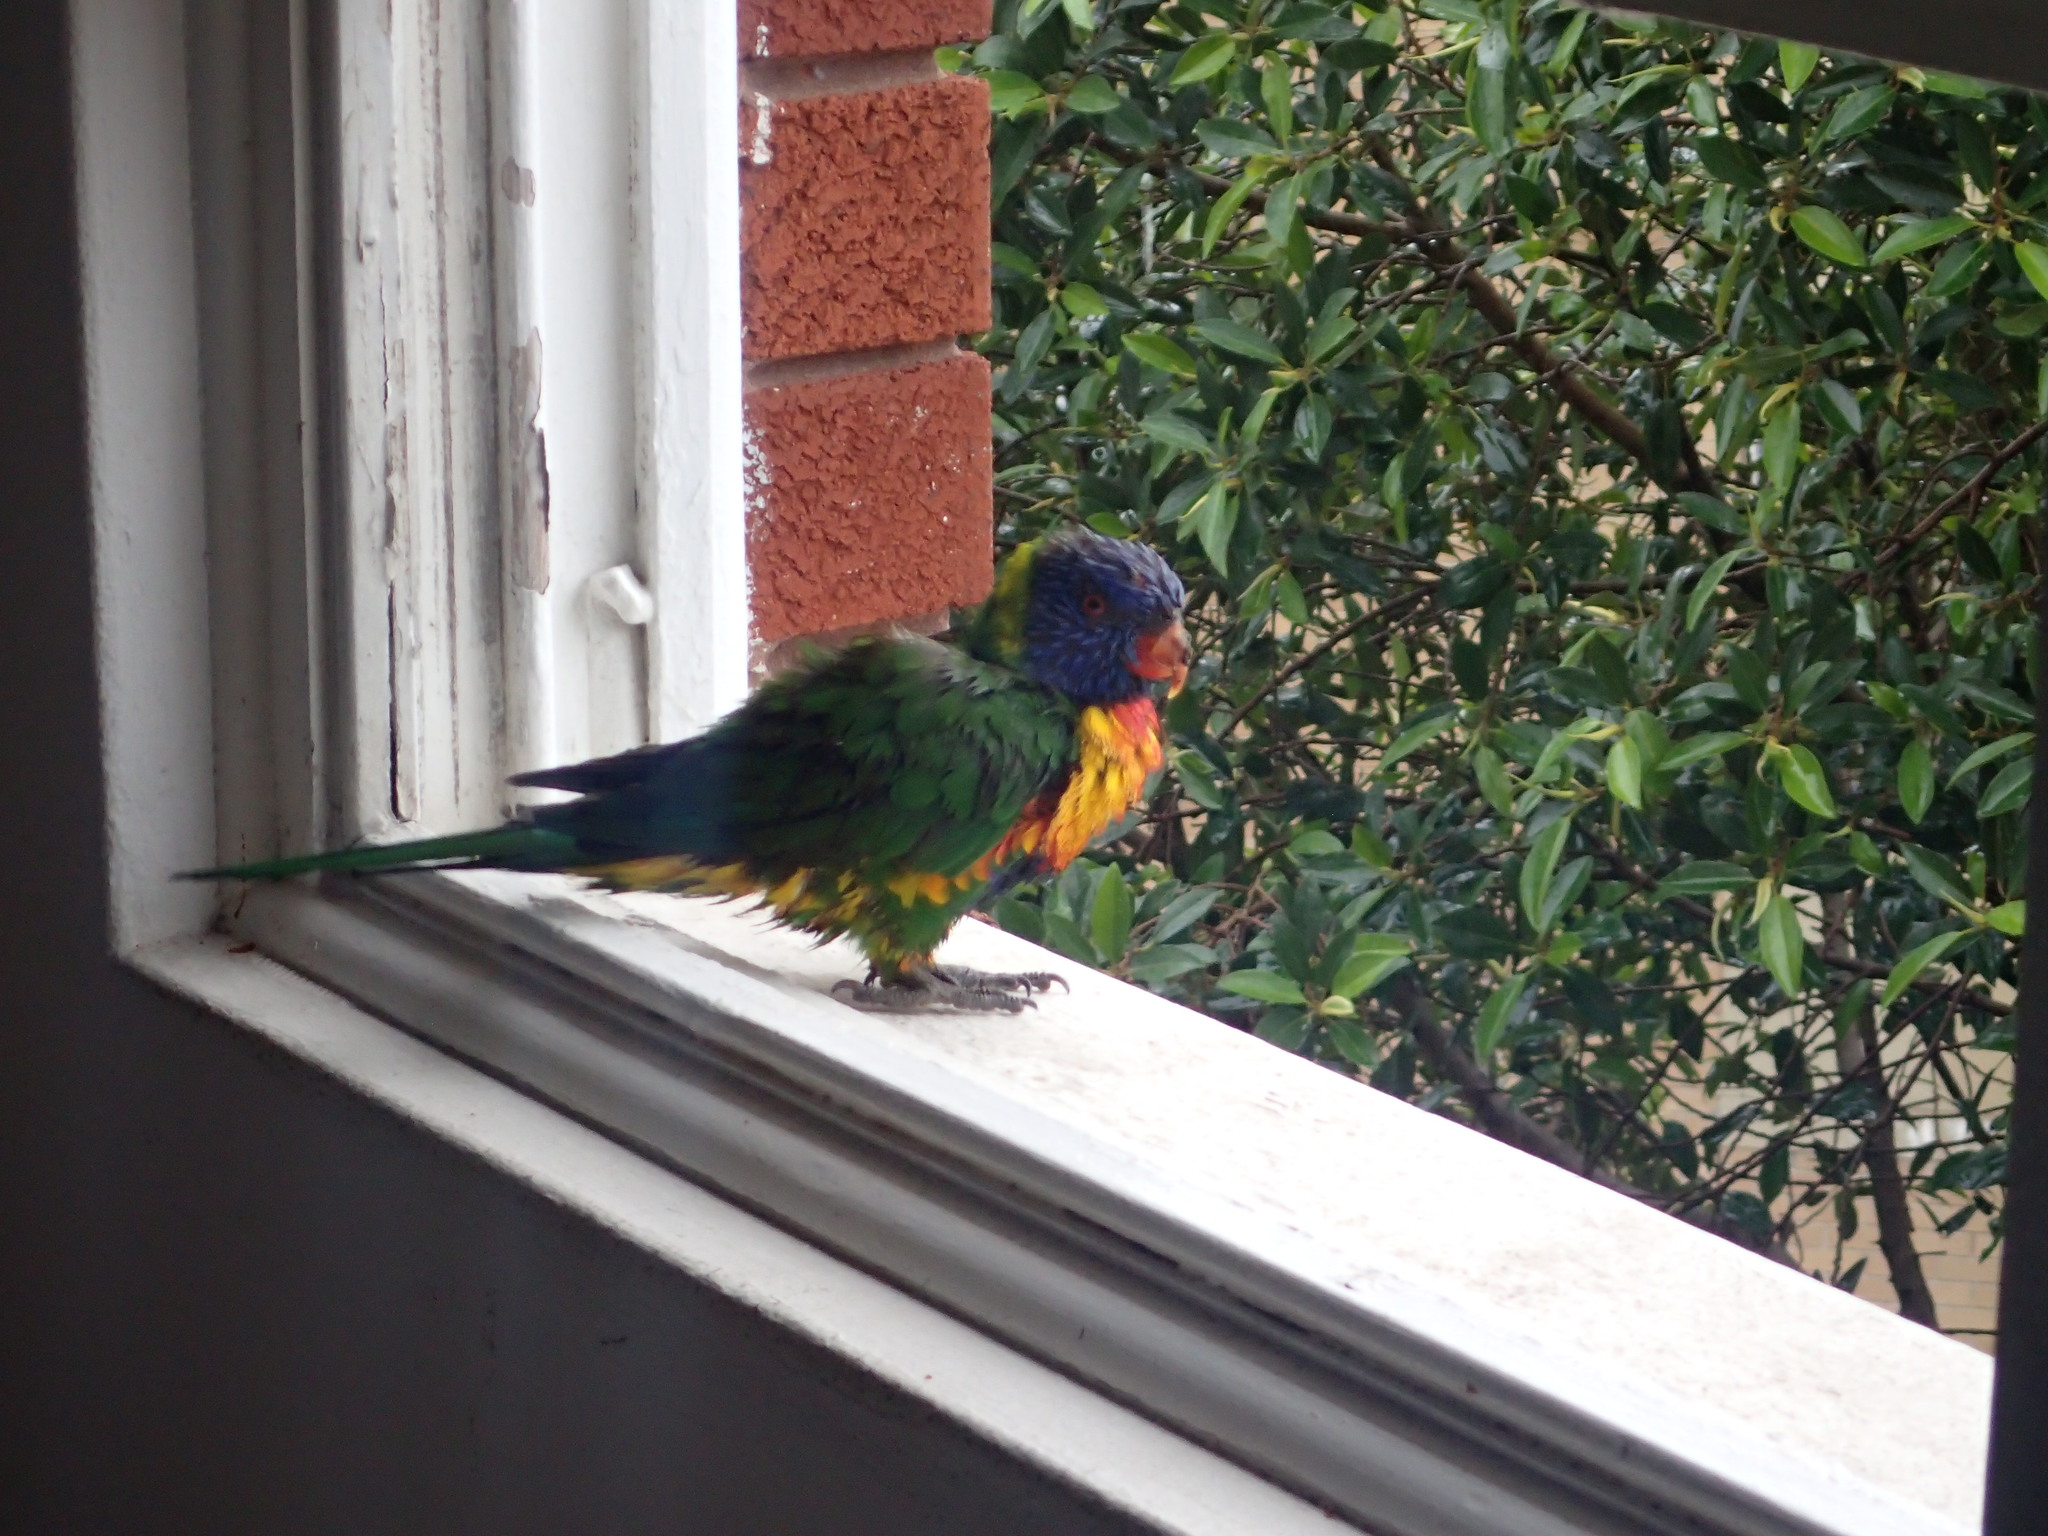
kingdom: Animalia
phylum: Chordata
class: Aves
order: Psittaciformes
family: Psittacidae
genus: Trichoglossus
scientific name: Trichoglossus haematodus
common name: Coconut lorikeet
